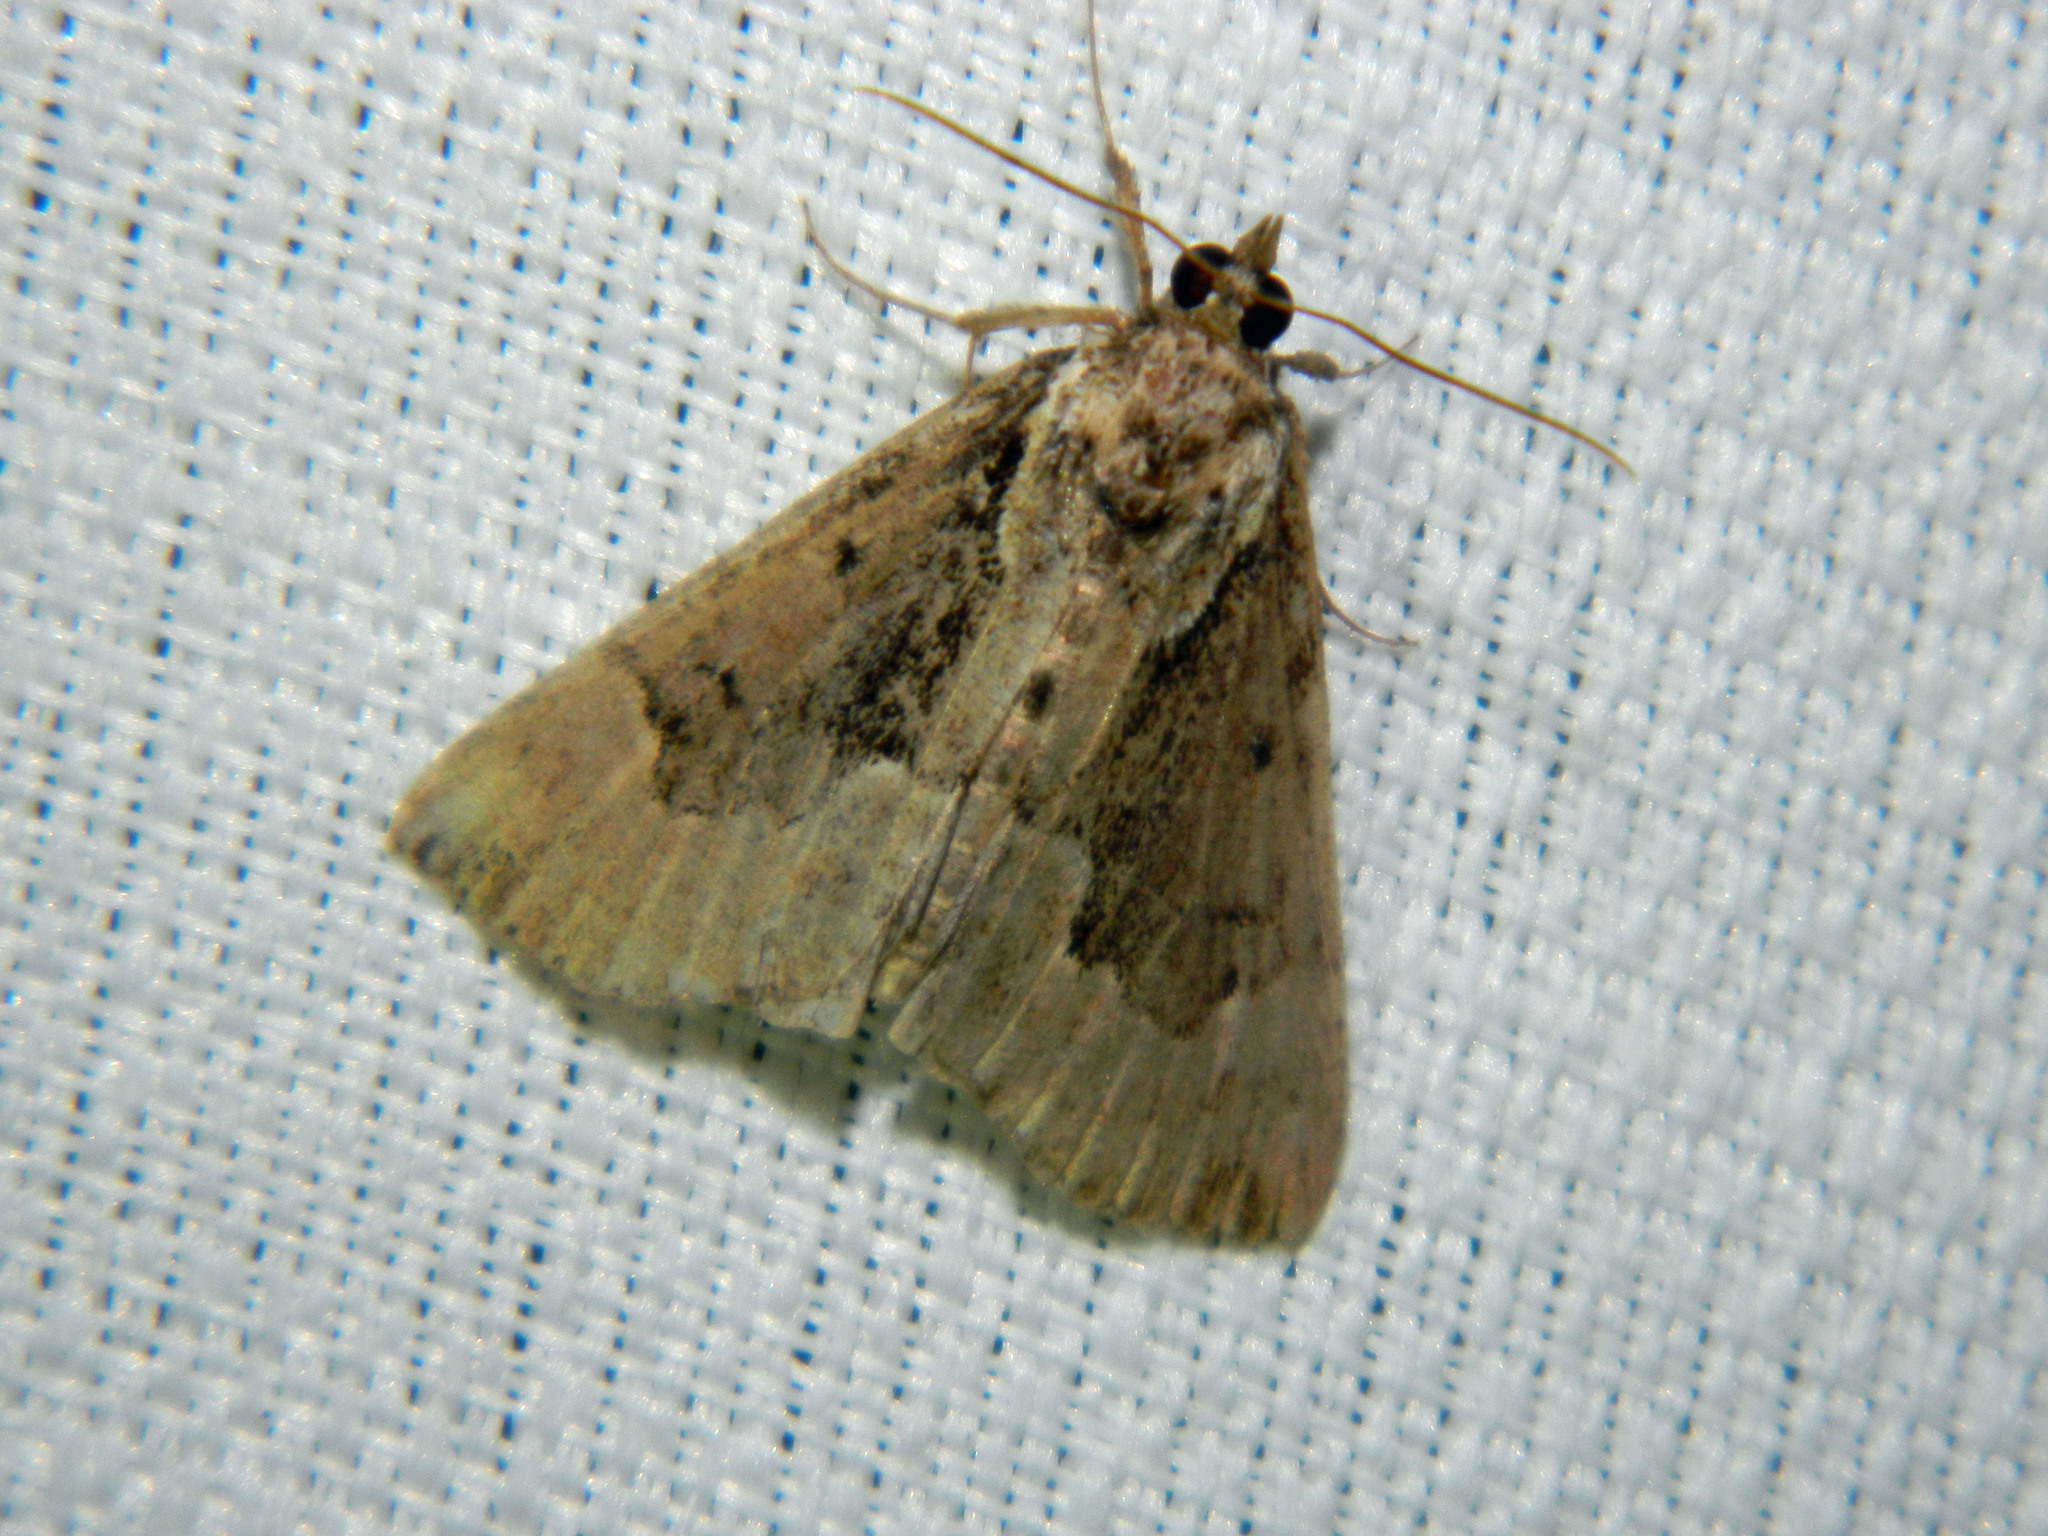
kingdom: Animalia
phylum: Arthropoda
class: Insecta
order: Lepidoptera
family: Erebidae
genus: Hypena
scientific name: Hypena baltimoralis
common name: Baltimore snout
